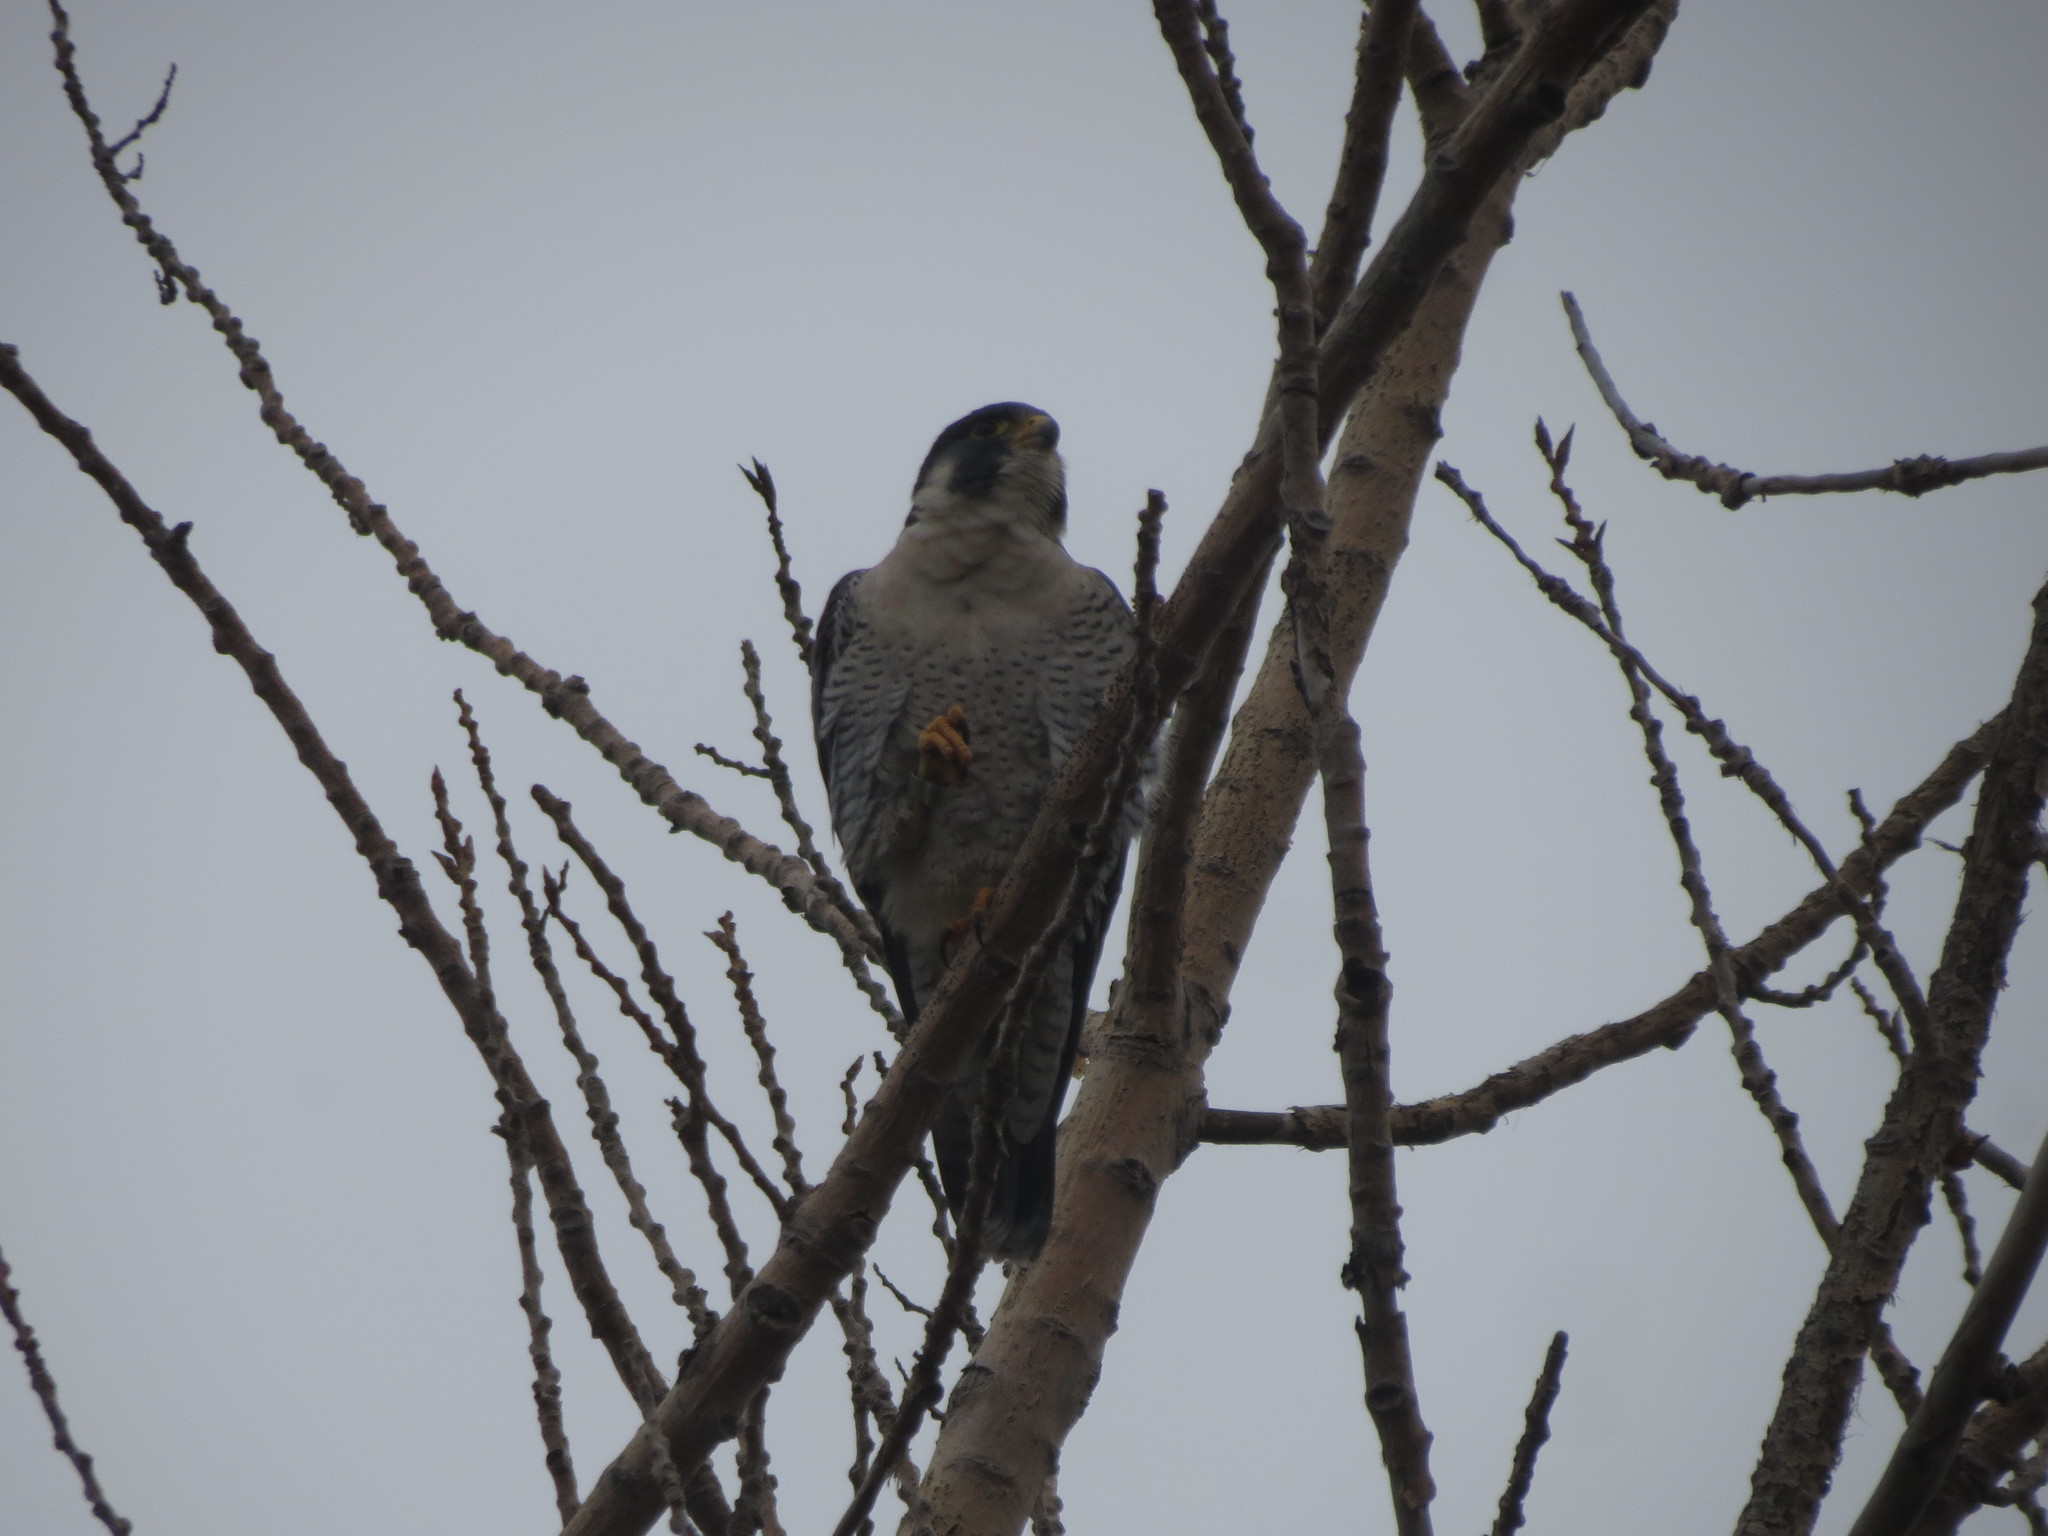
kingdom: Animalia
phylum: Chordata
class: Aves
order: Falconiformes
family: Falconidae
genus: Falco
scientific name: Falco peregrinus
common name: Peregrine falcon
